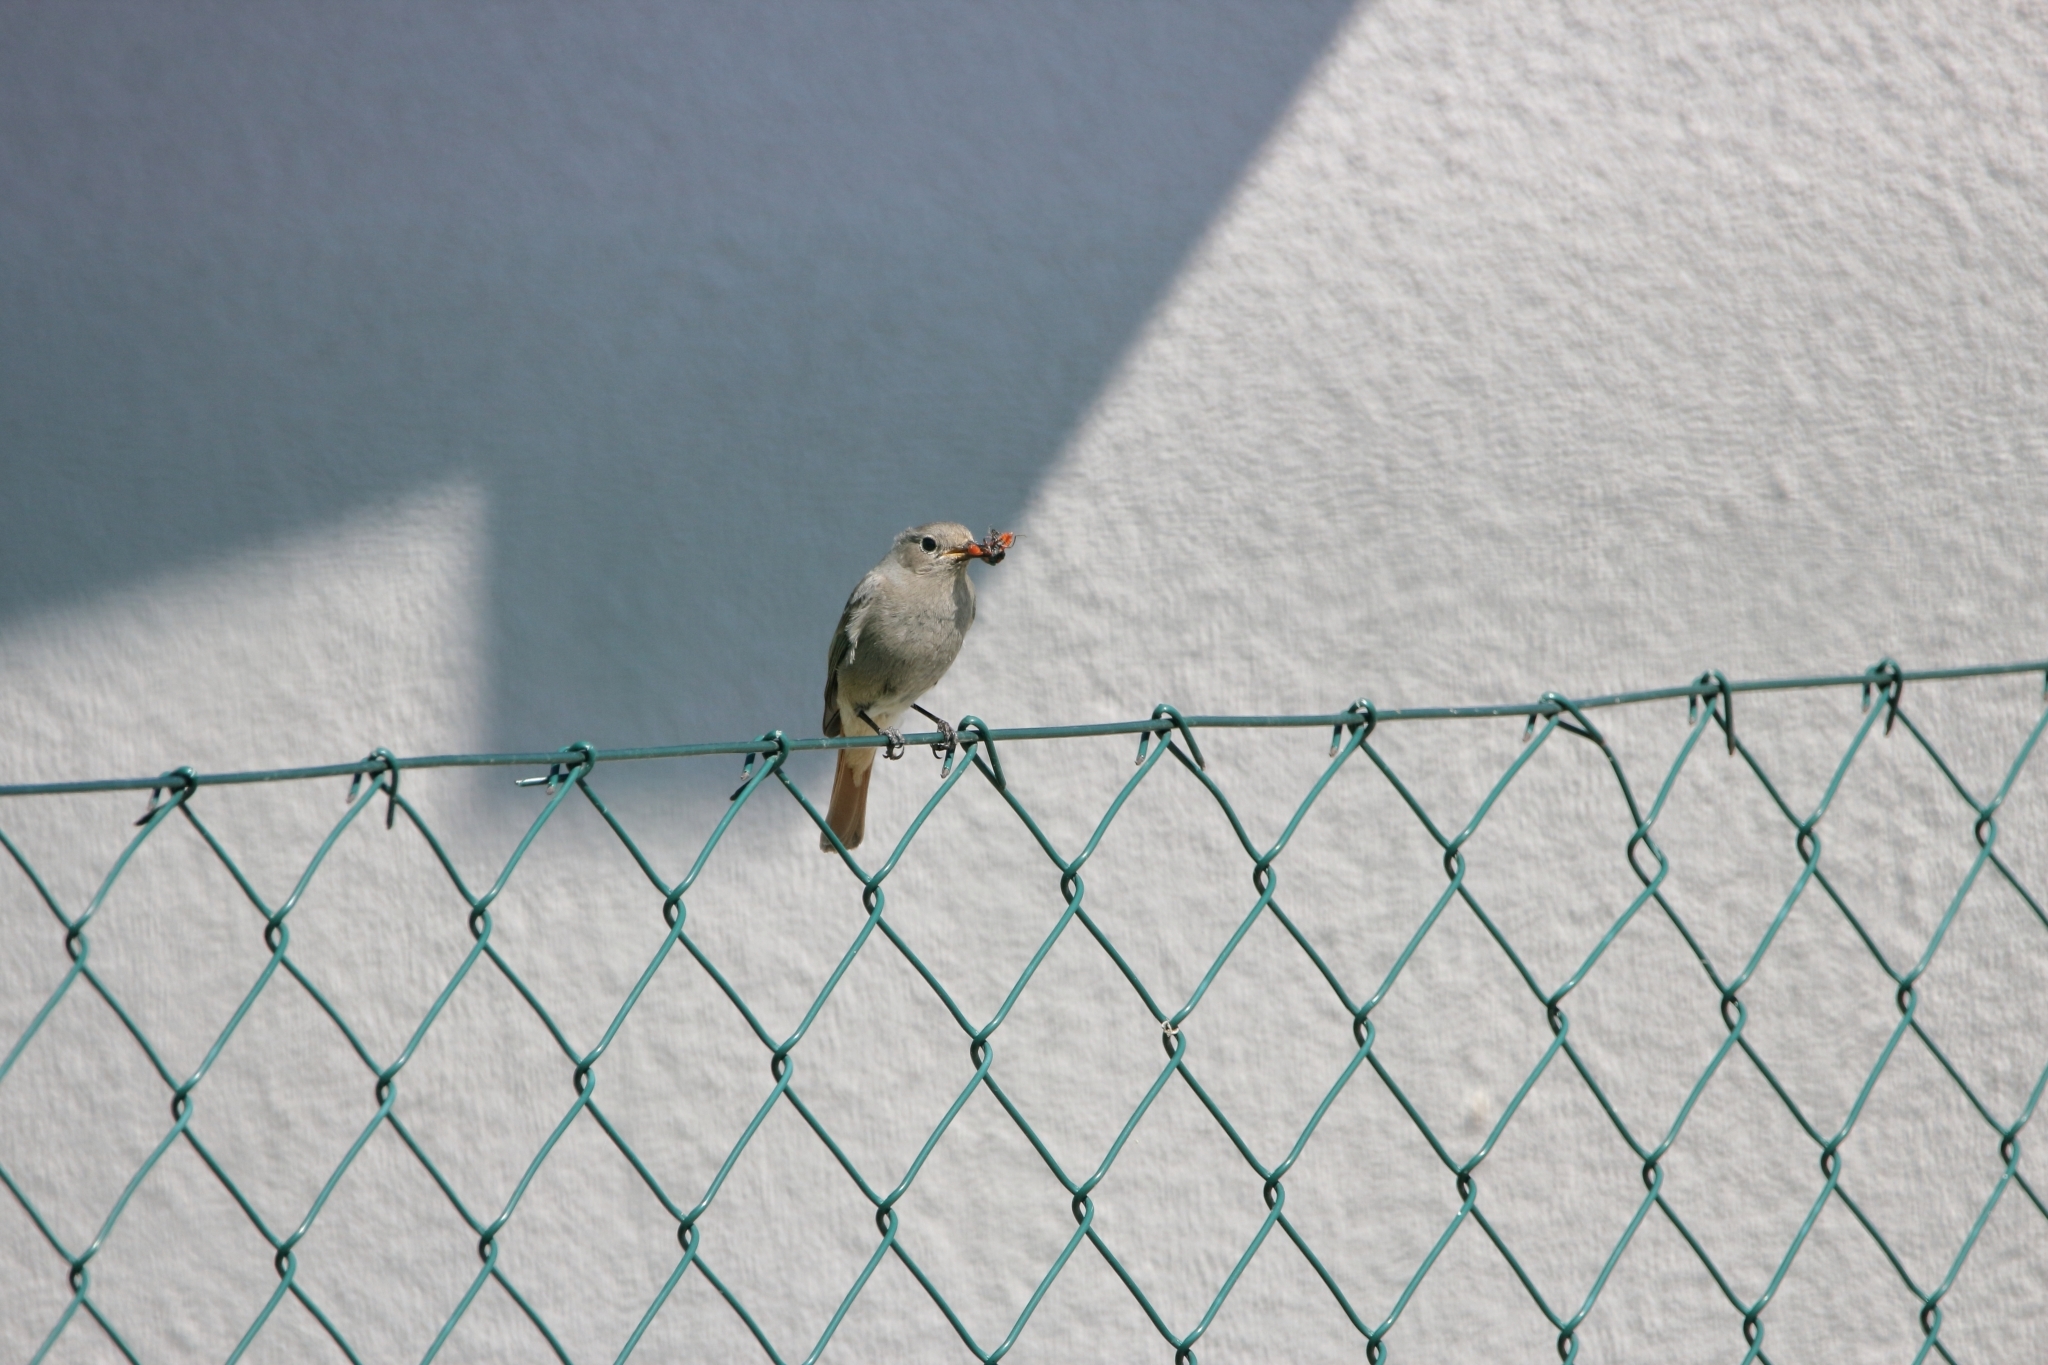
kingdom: Animalia
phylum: Chordata
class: Aves
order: Passeriformes
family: Muscicapidae
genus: Phoenicurus
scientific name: Phoenicurus ochruros
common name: Black redstart
